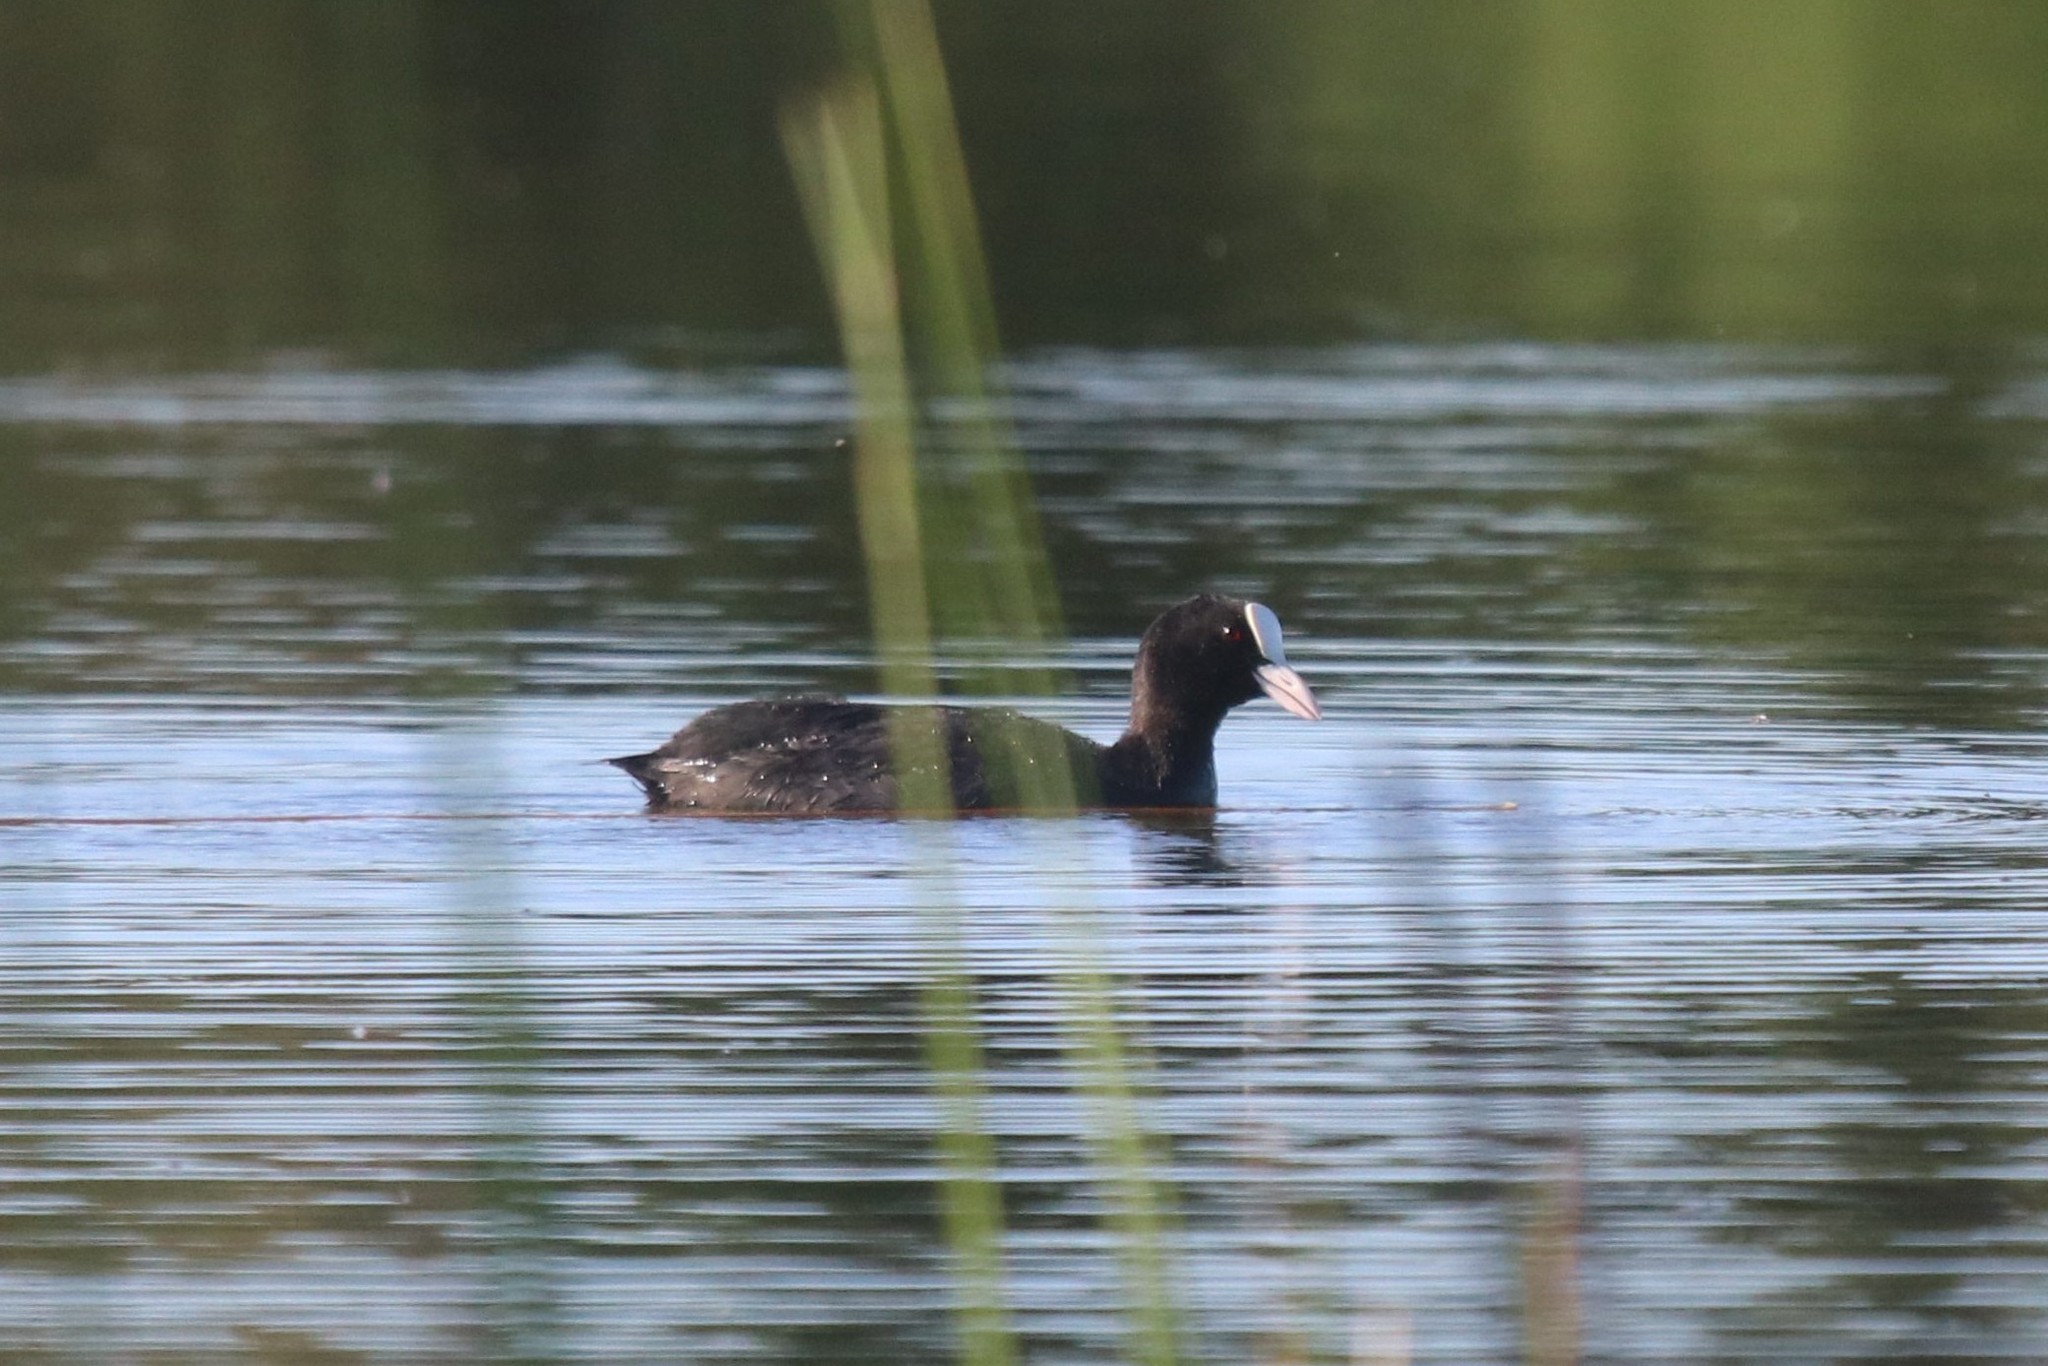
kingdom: Animalia
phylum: Chordata
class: Aves
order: Gruiformes
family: Rallidae
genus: Fulica
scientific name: Fulica atra
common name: Eurasian coot
